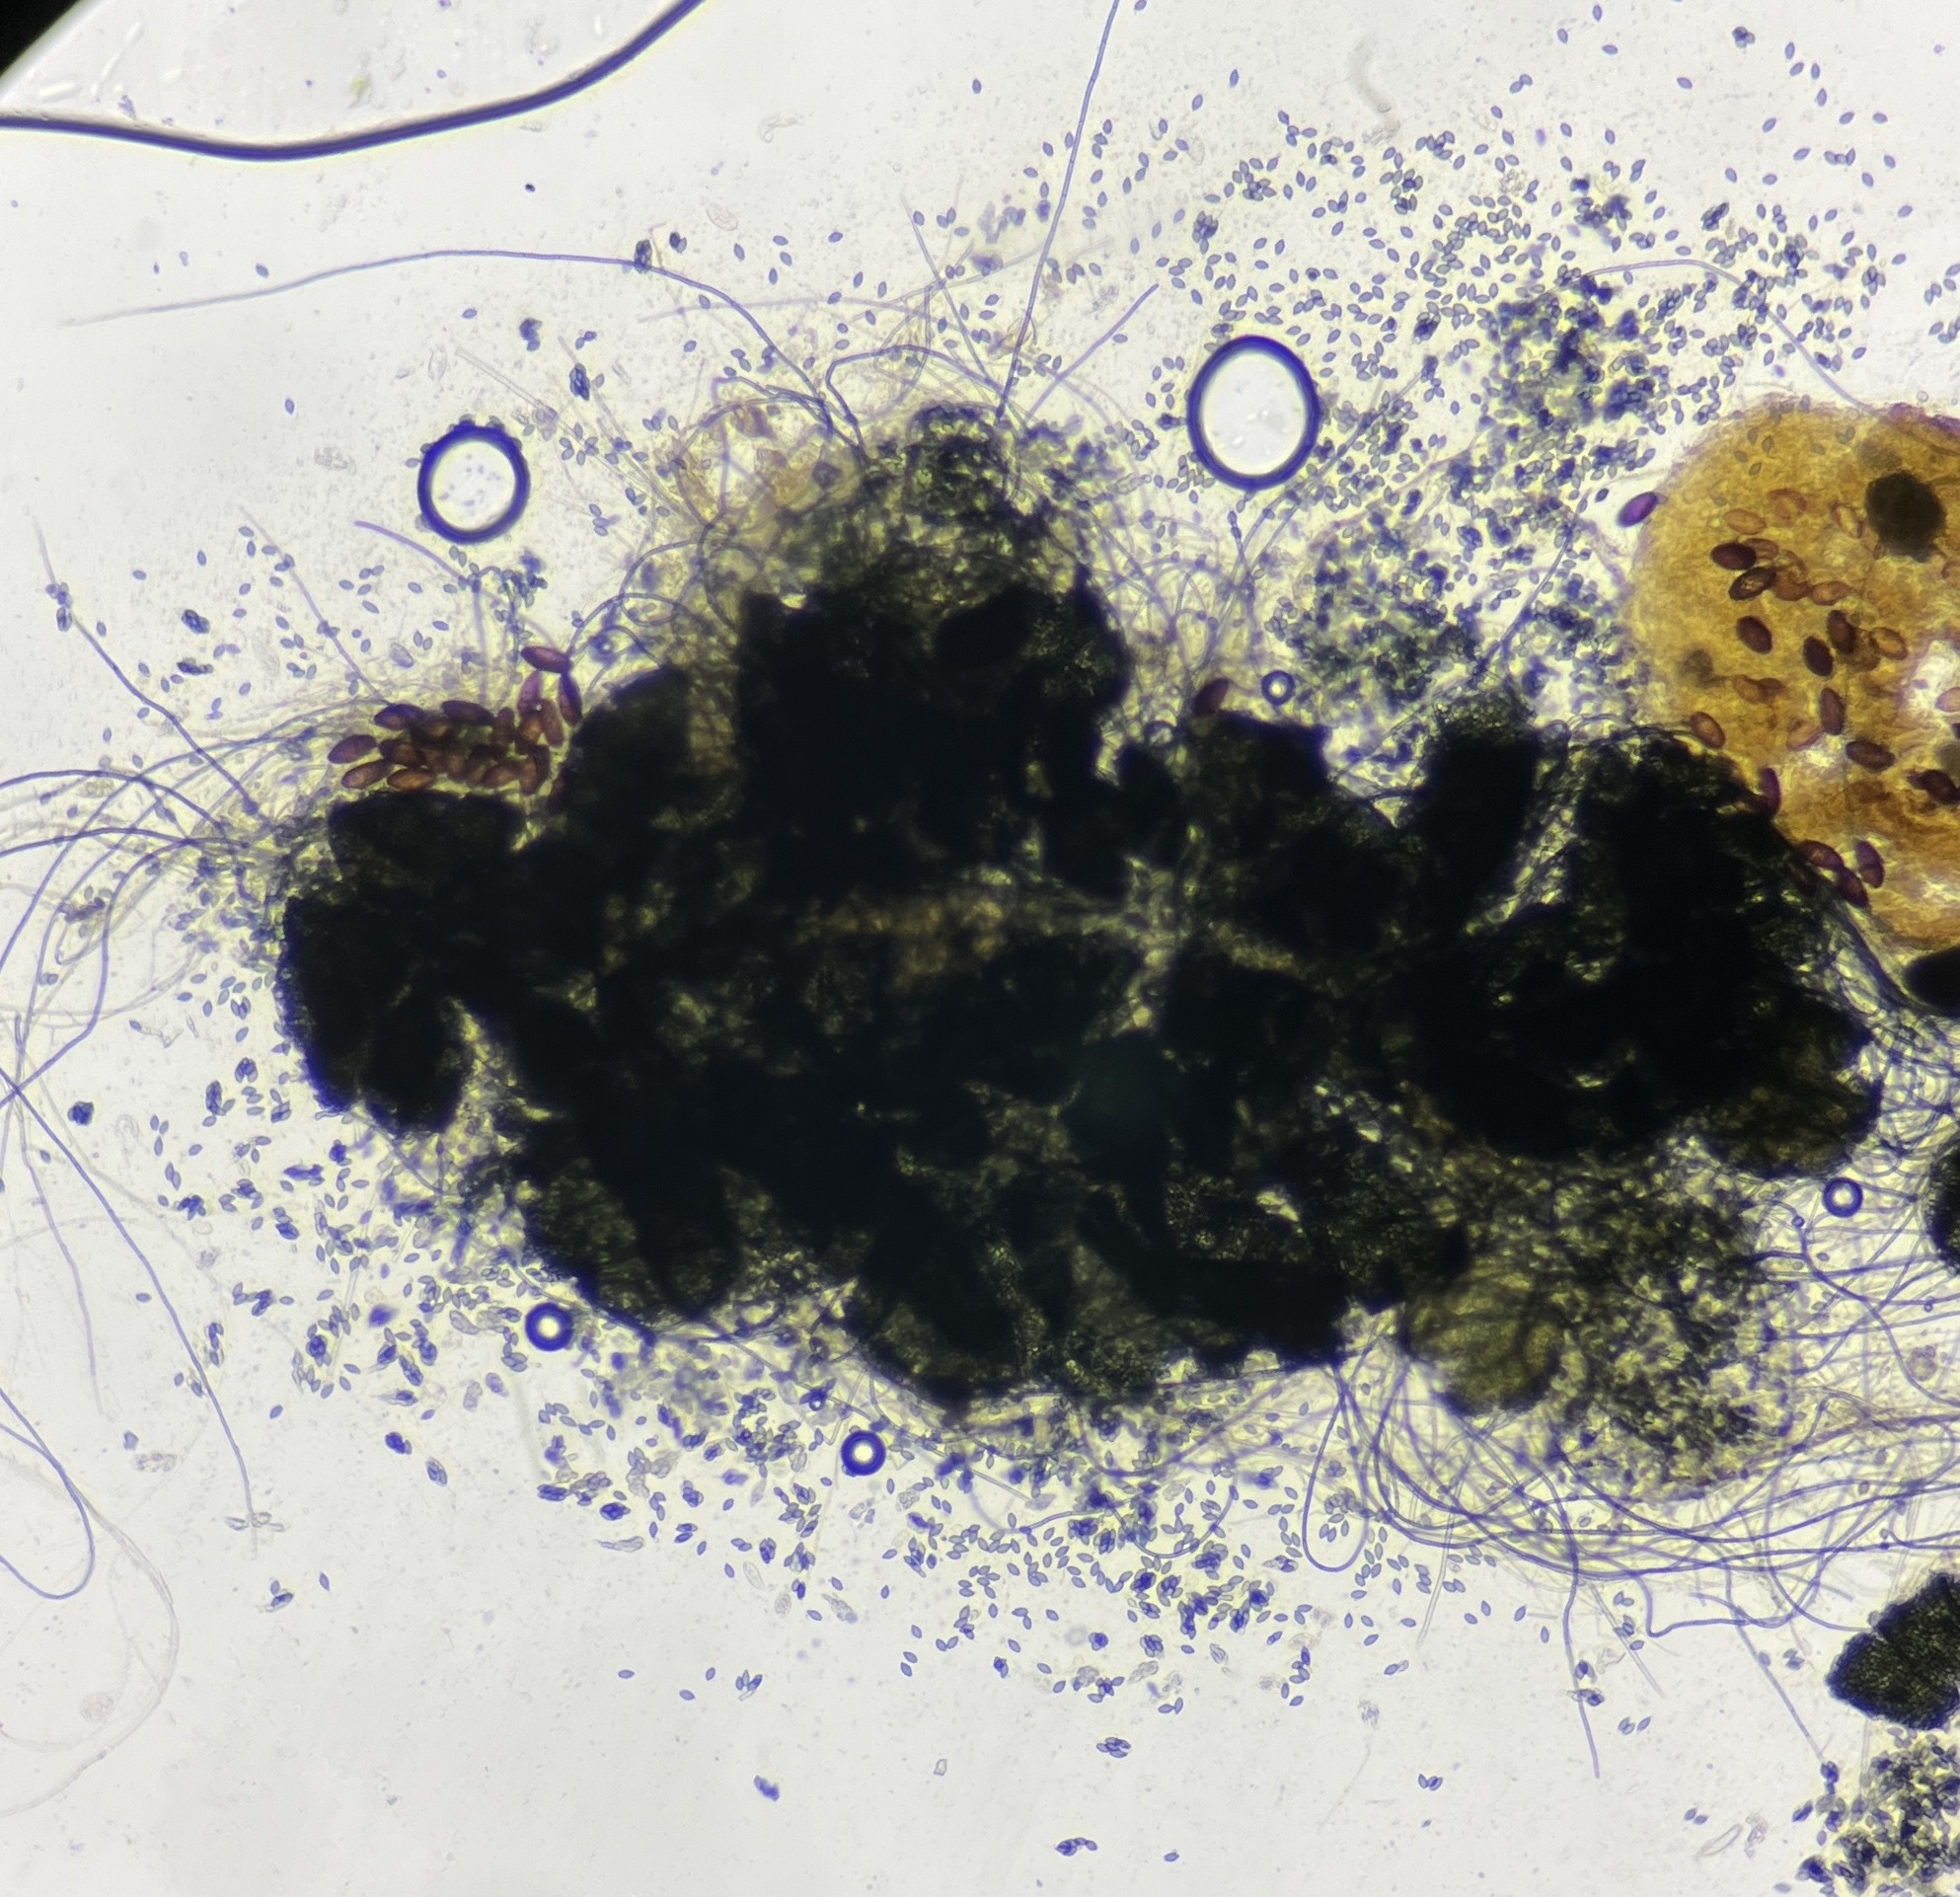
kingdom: Fungi
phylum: Ascomycota
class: Sordariomycetes
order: Sordariales
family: Lasiosphaeriaceae
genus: Zopfiella
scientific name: Zopfiella erostrata
